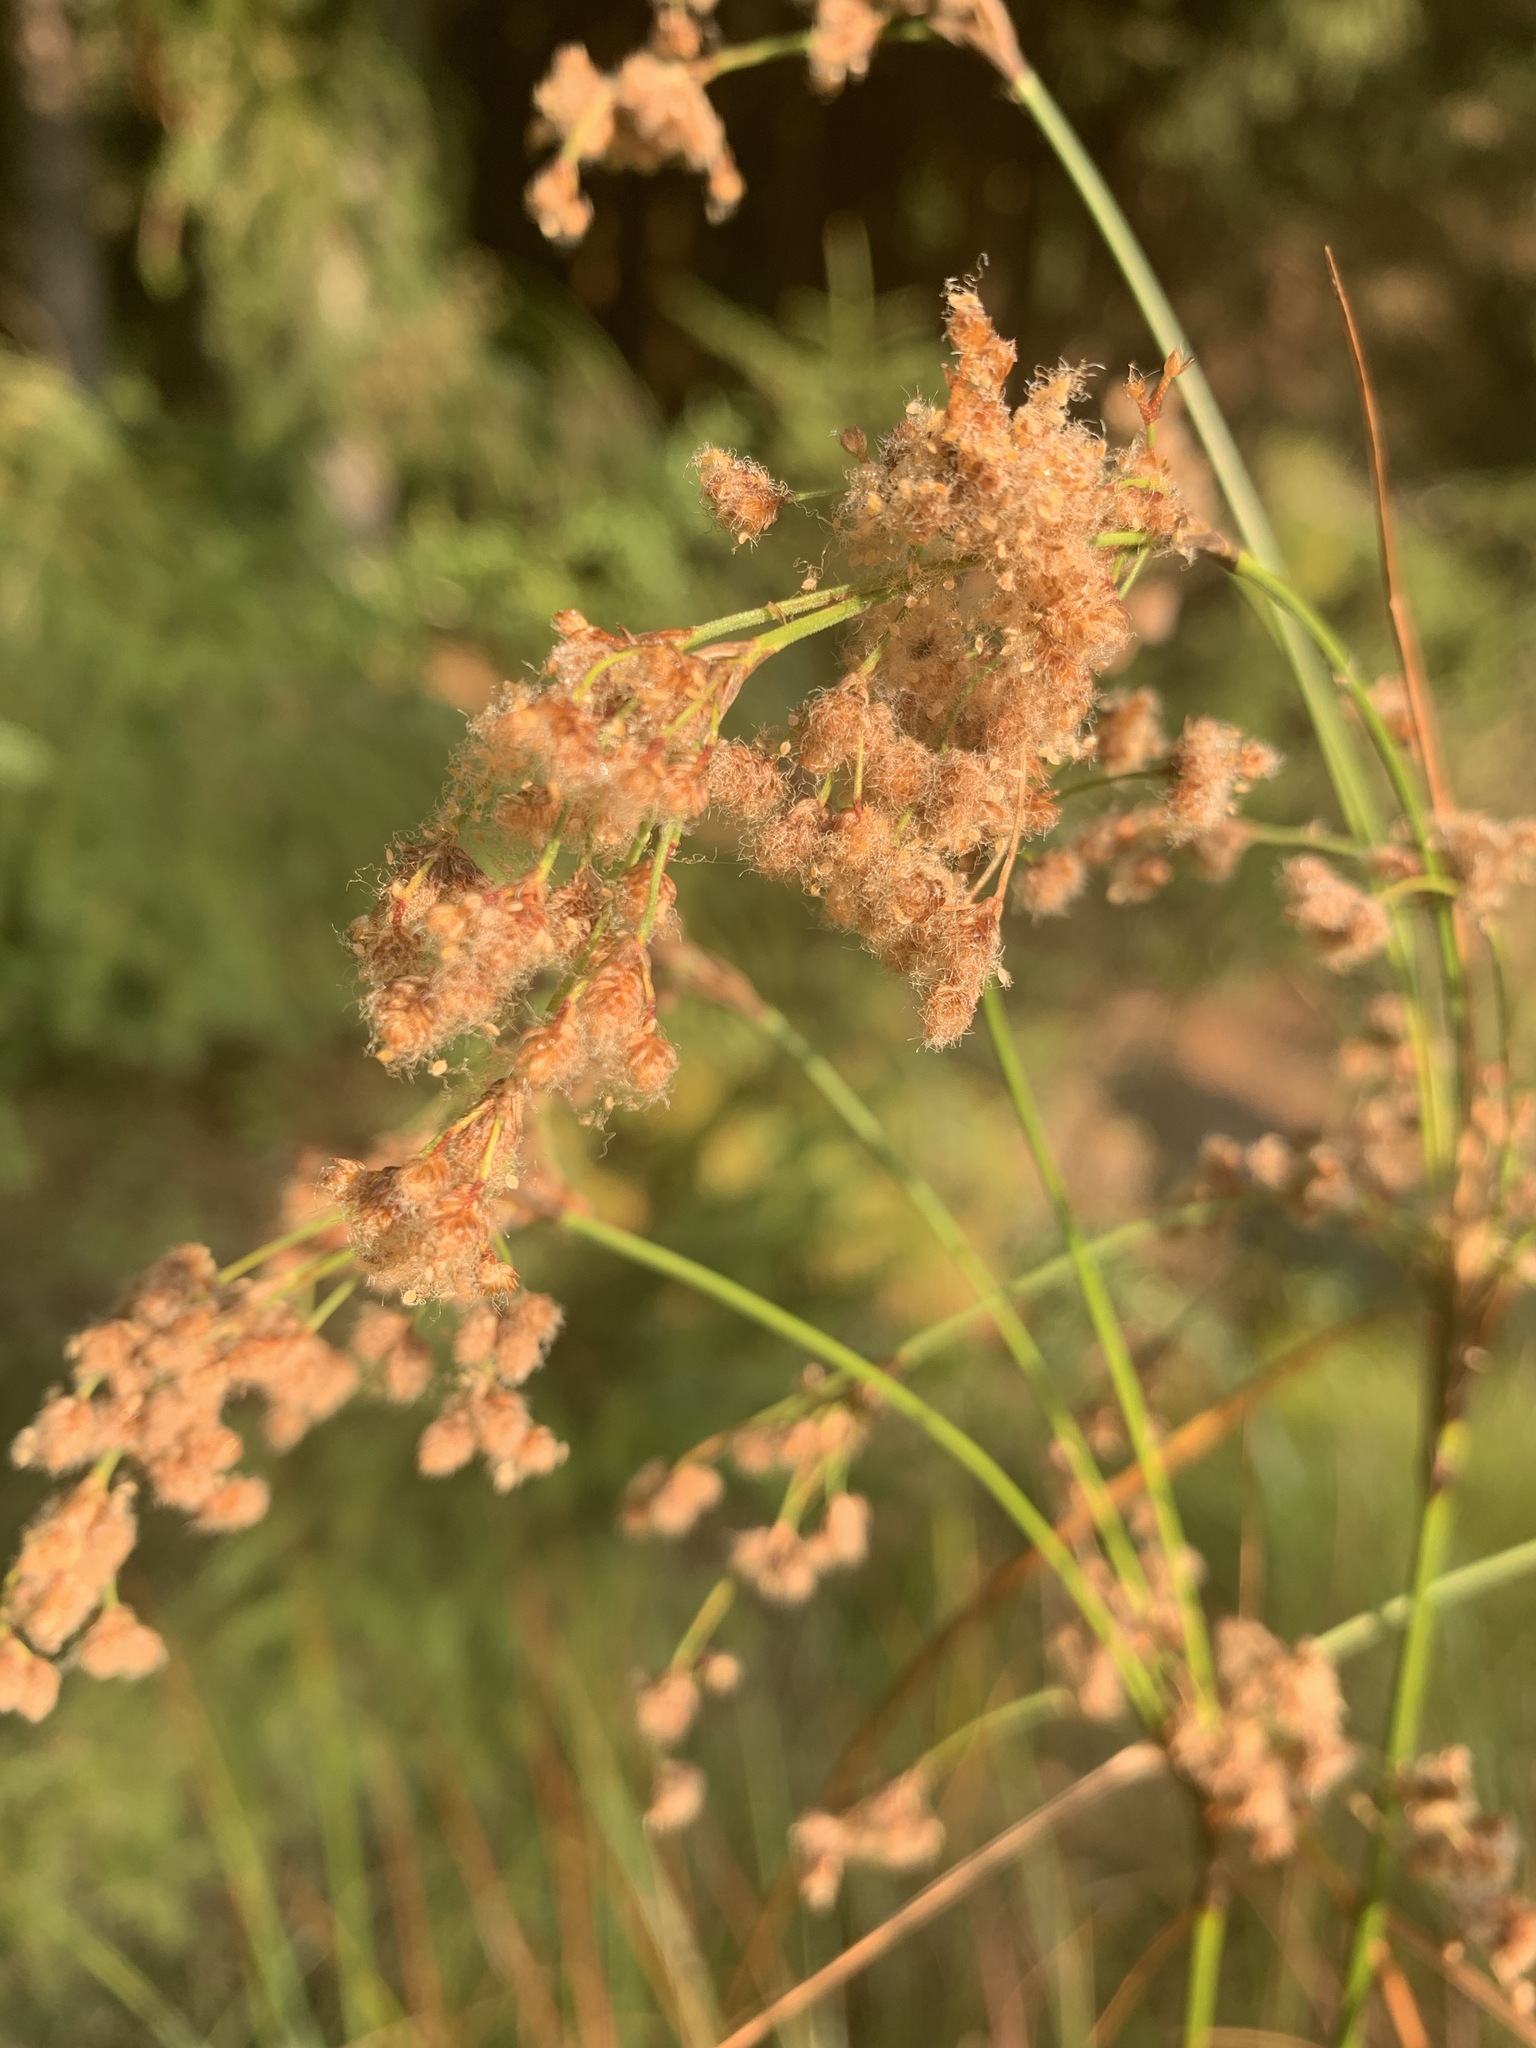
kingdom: Plantae
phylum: Tracheophyta
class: Liliopsida
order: Poales
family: Cyperaceae
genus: Scirpus
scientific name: Scirpus cyperinus
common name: Black-sheathed bulrush
